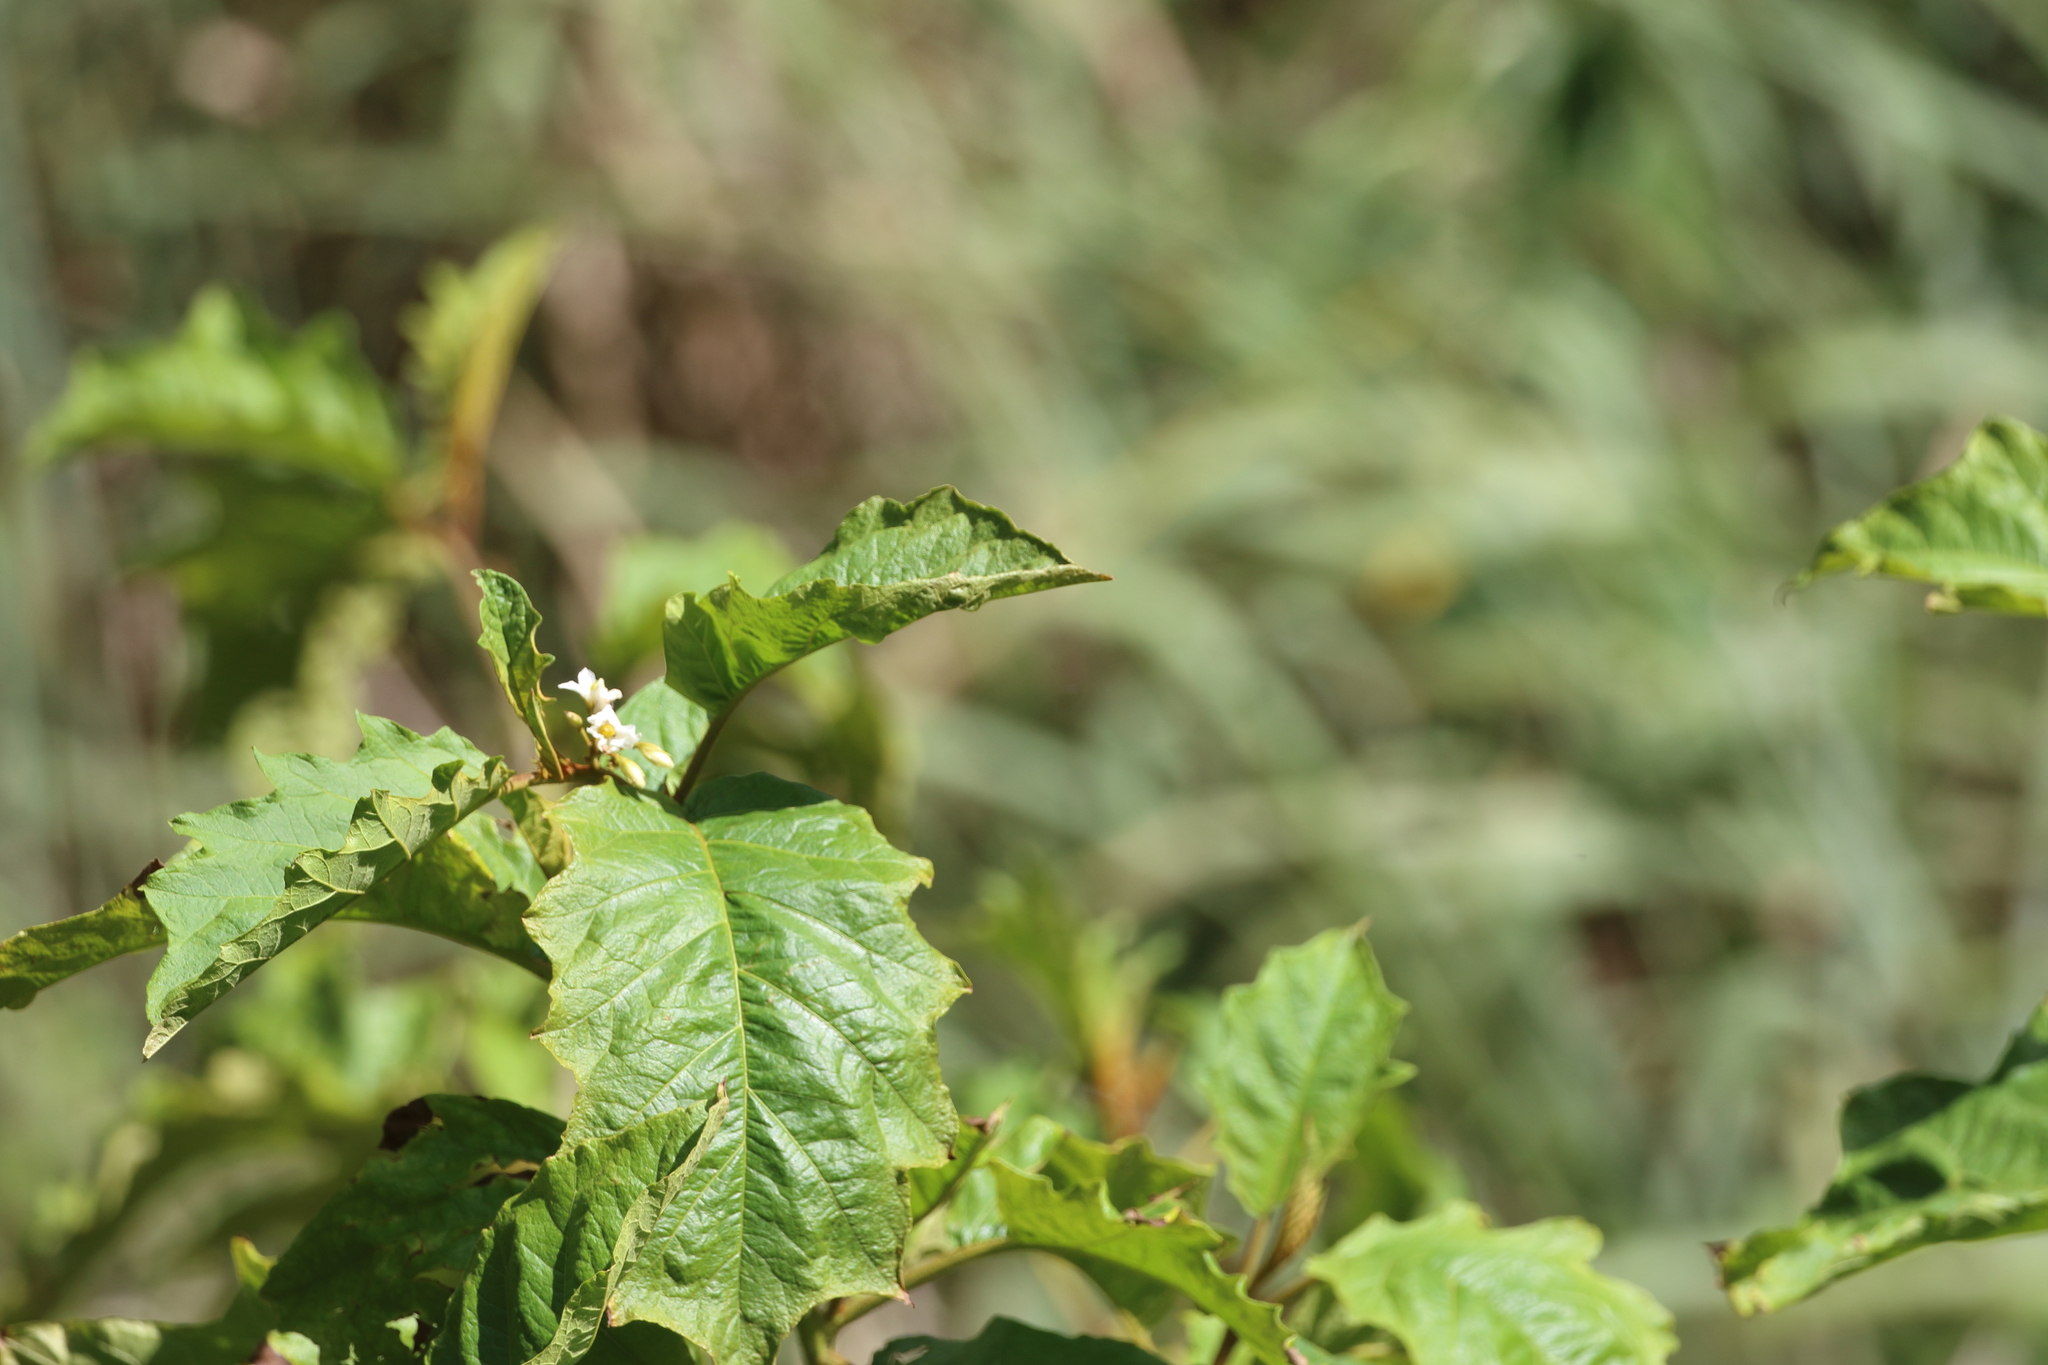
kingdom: Plantae
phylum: Tracheophyta
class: Magnoliopsida
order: Solanales
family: Solanaceae
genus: Solanum
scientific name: Solanum chrysotrichum
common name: Nightshade
